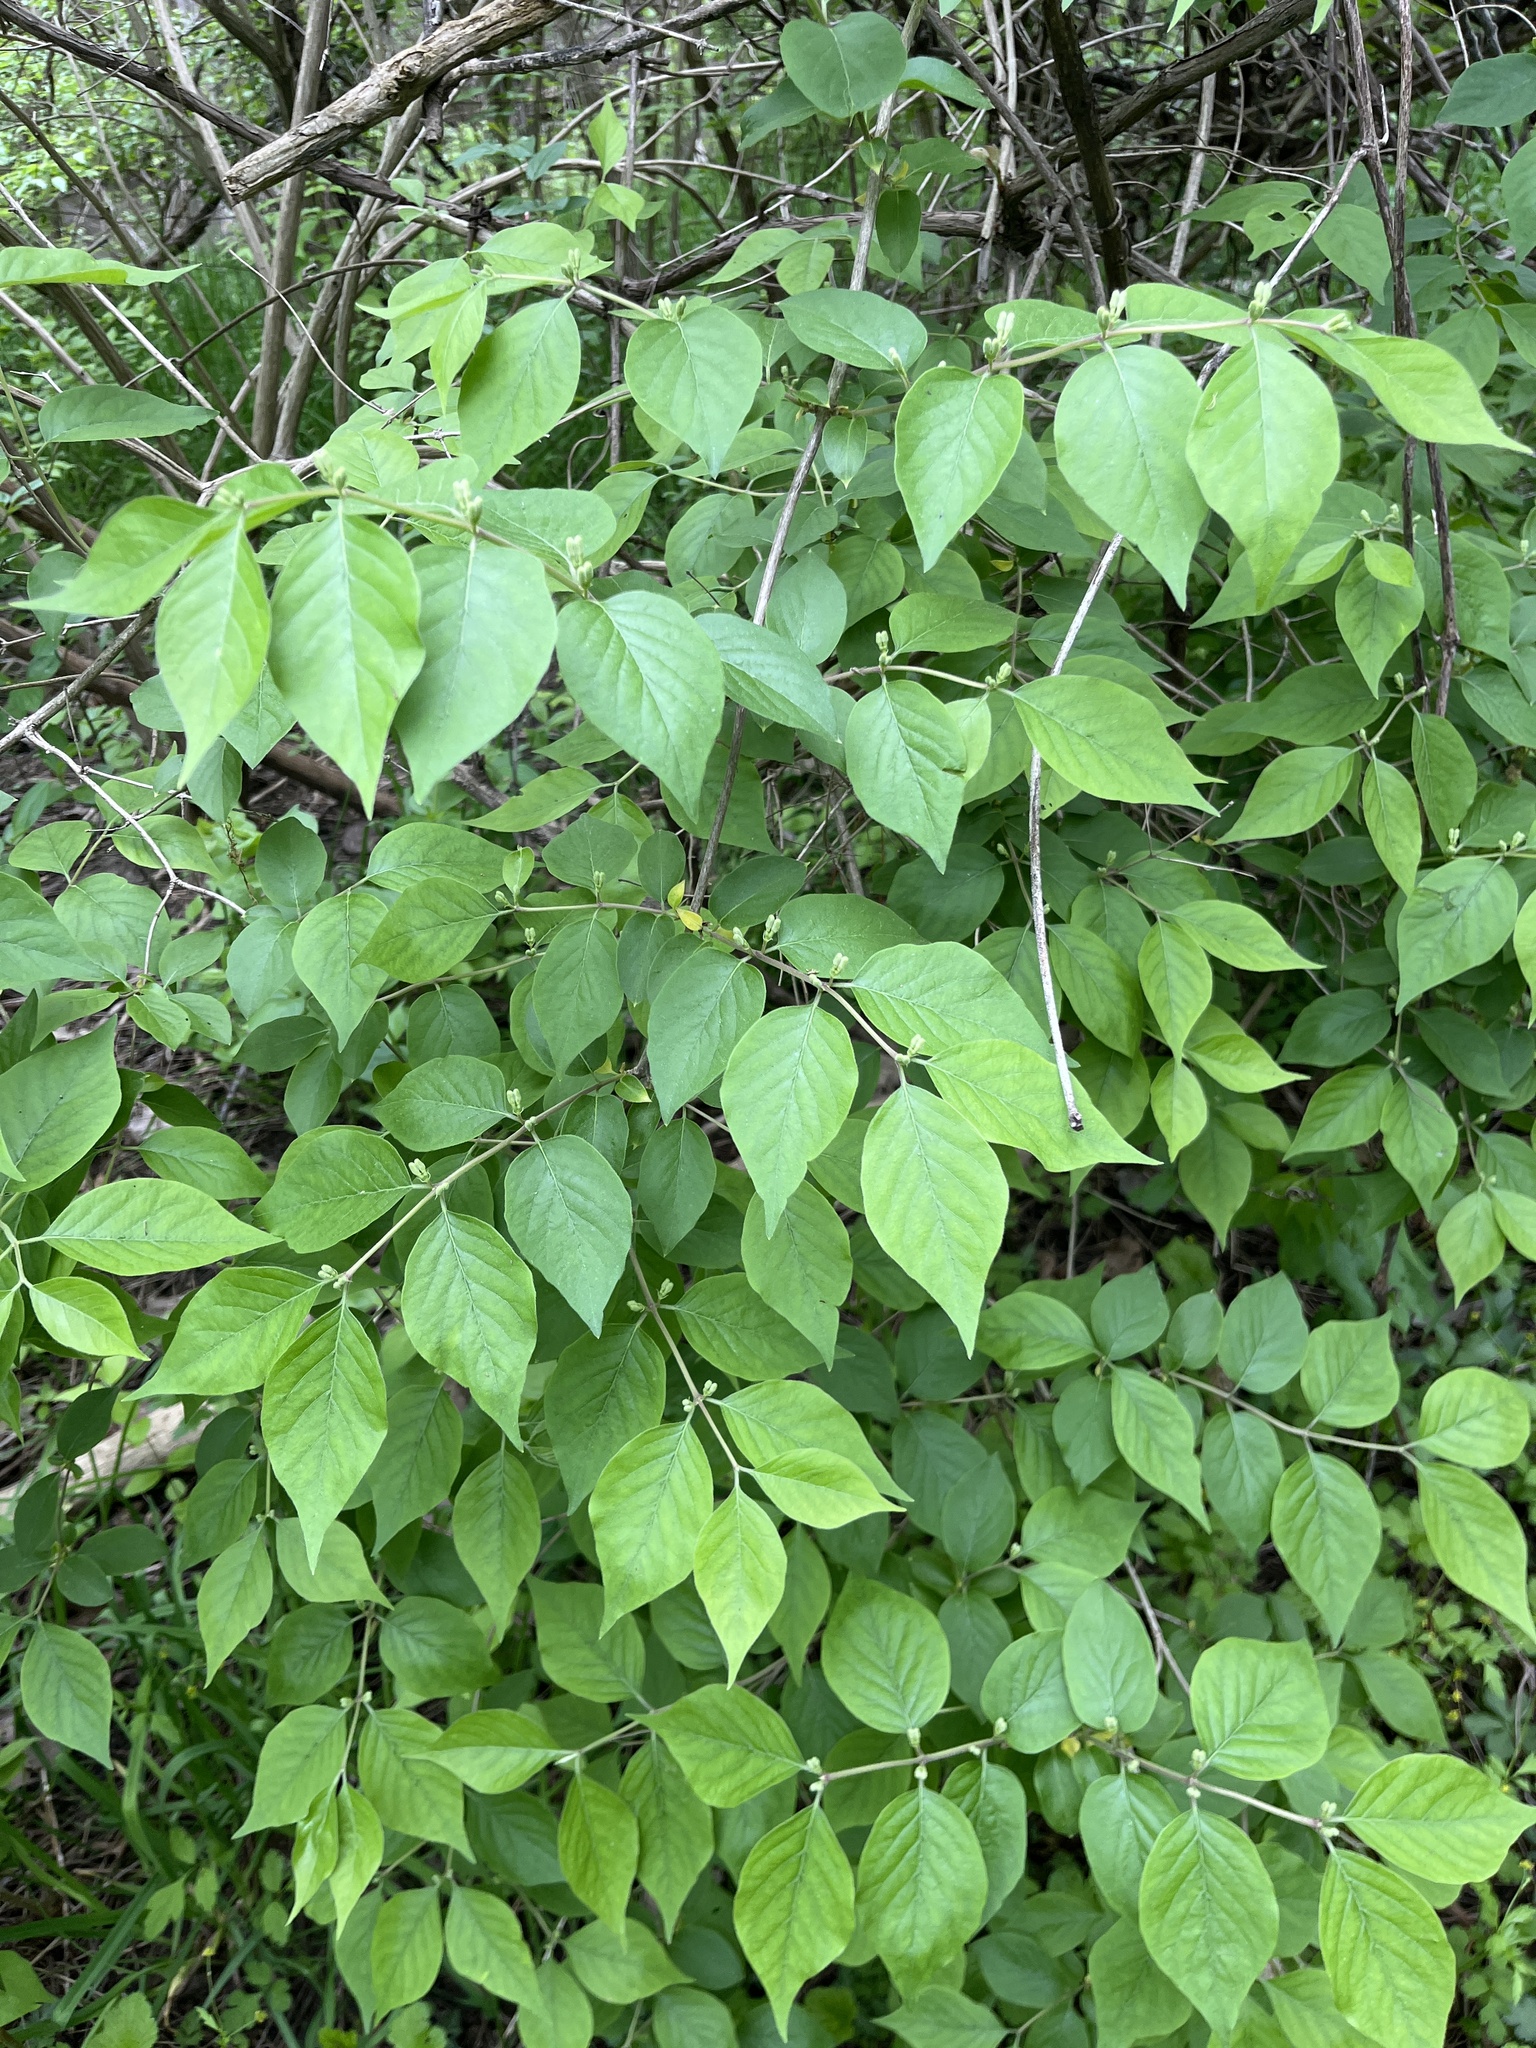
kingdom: Plantae
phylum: Tracheophyta
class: Magnoliopsida
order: Dipsacales
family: Caprifoliaceae
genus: Lonicera
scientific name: Lonicera maackii
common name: Amur honeysuckle
